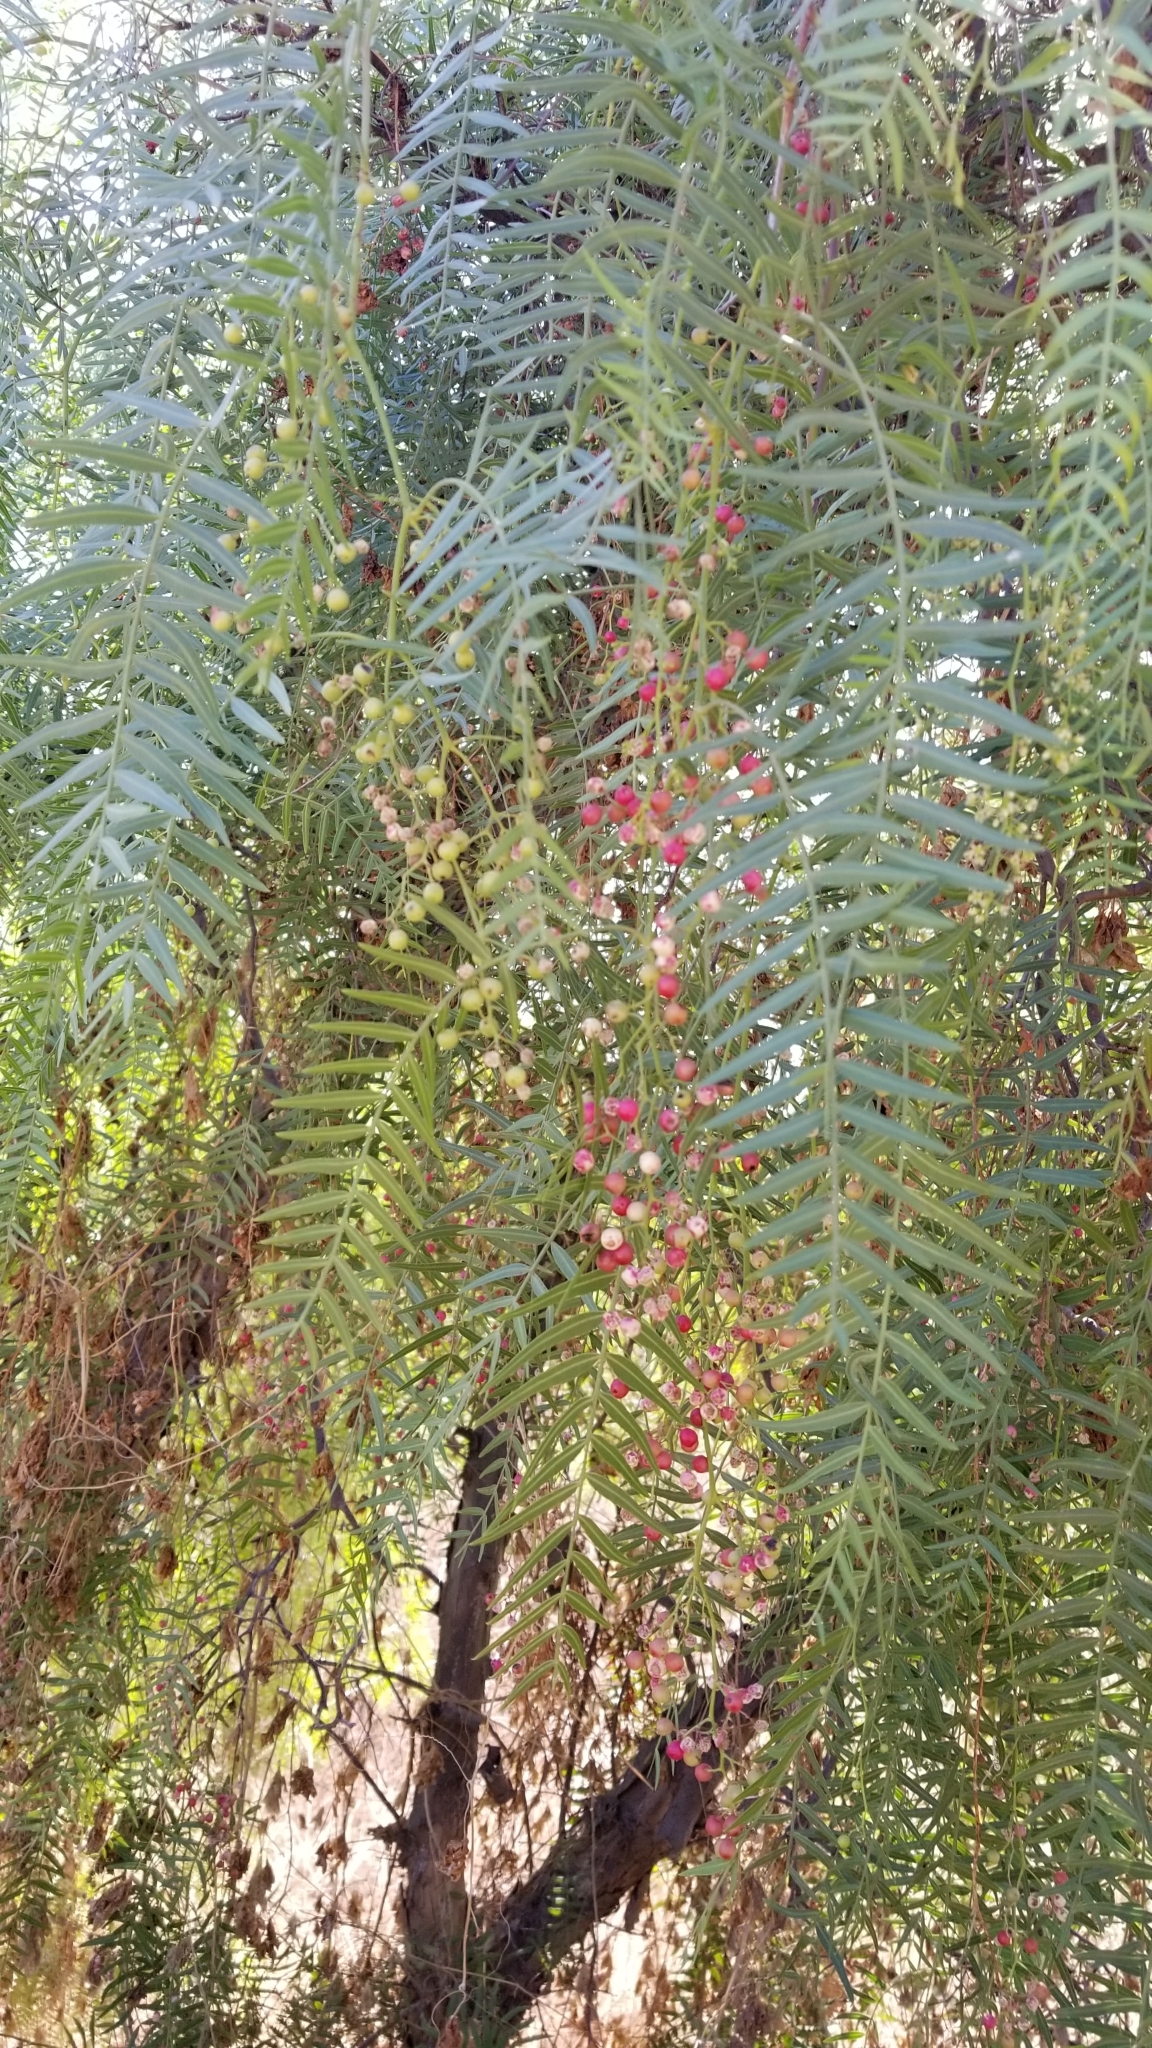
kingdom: Plantae
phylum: Tracheophyta
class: Magnoliopsida
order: Sapindales
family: Anacardiaceae
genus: Schinus
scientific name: Schinus molle
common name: Peruvian peppertree
